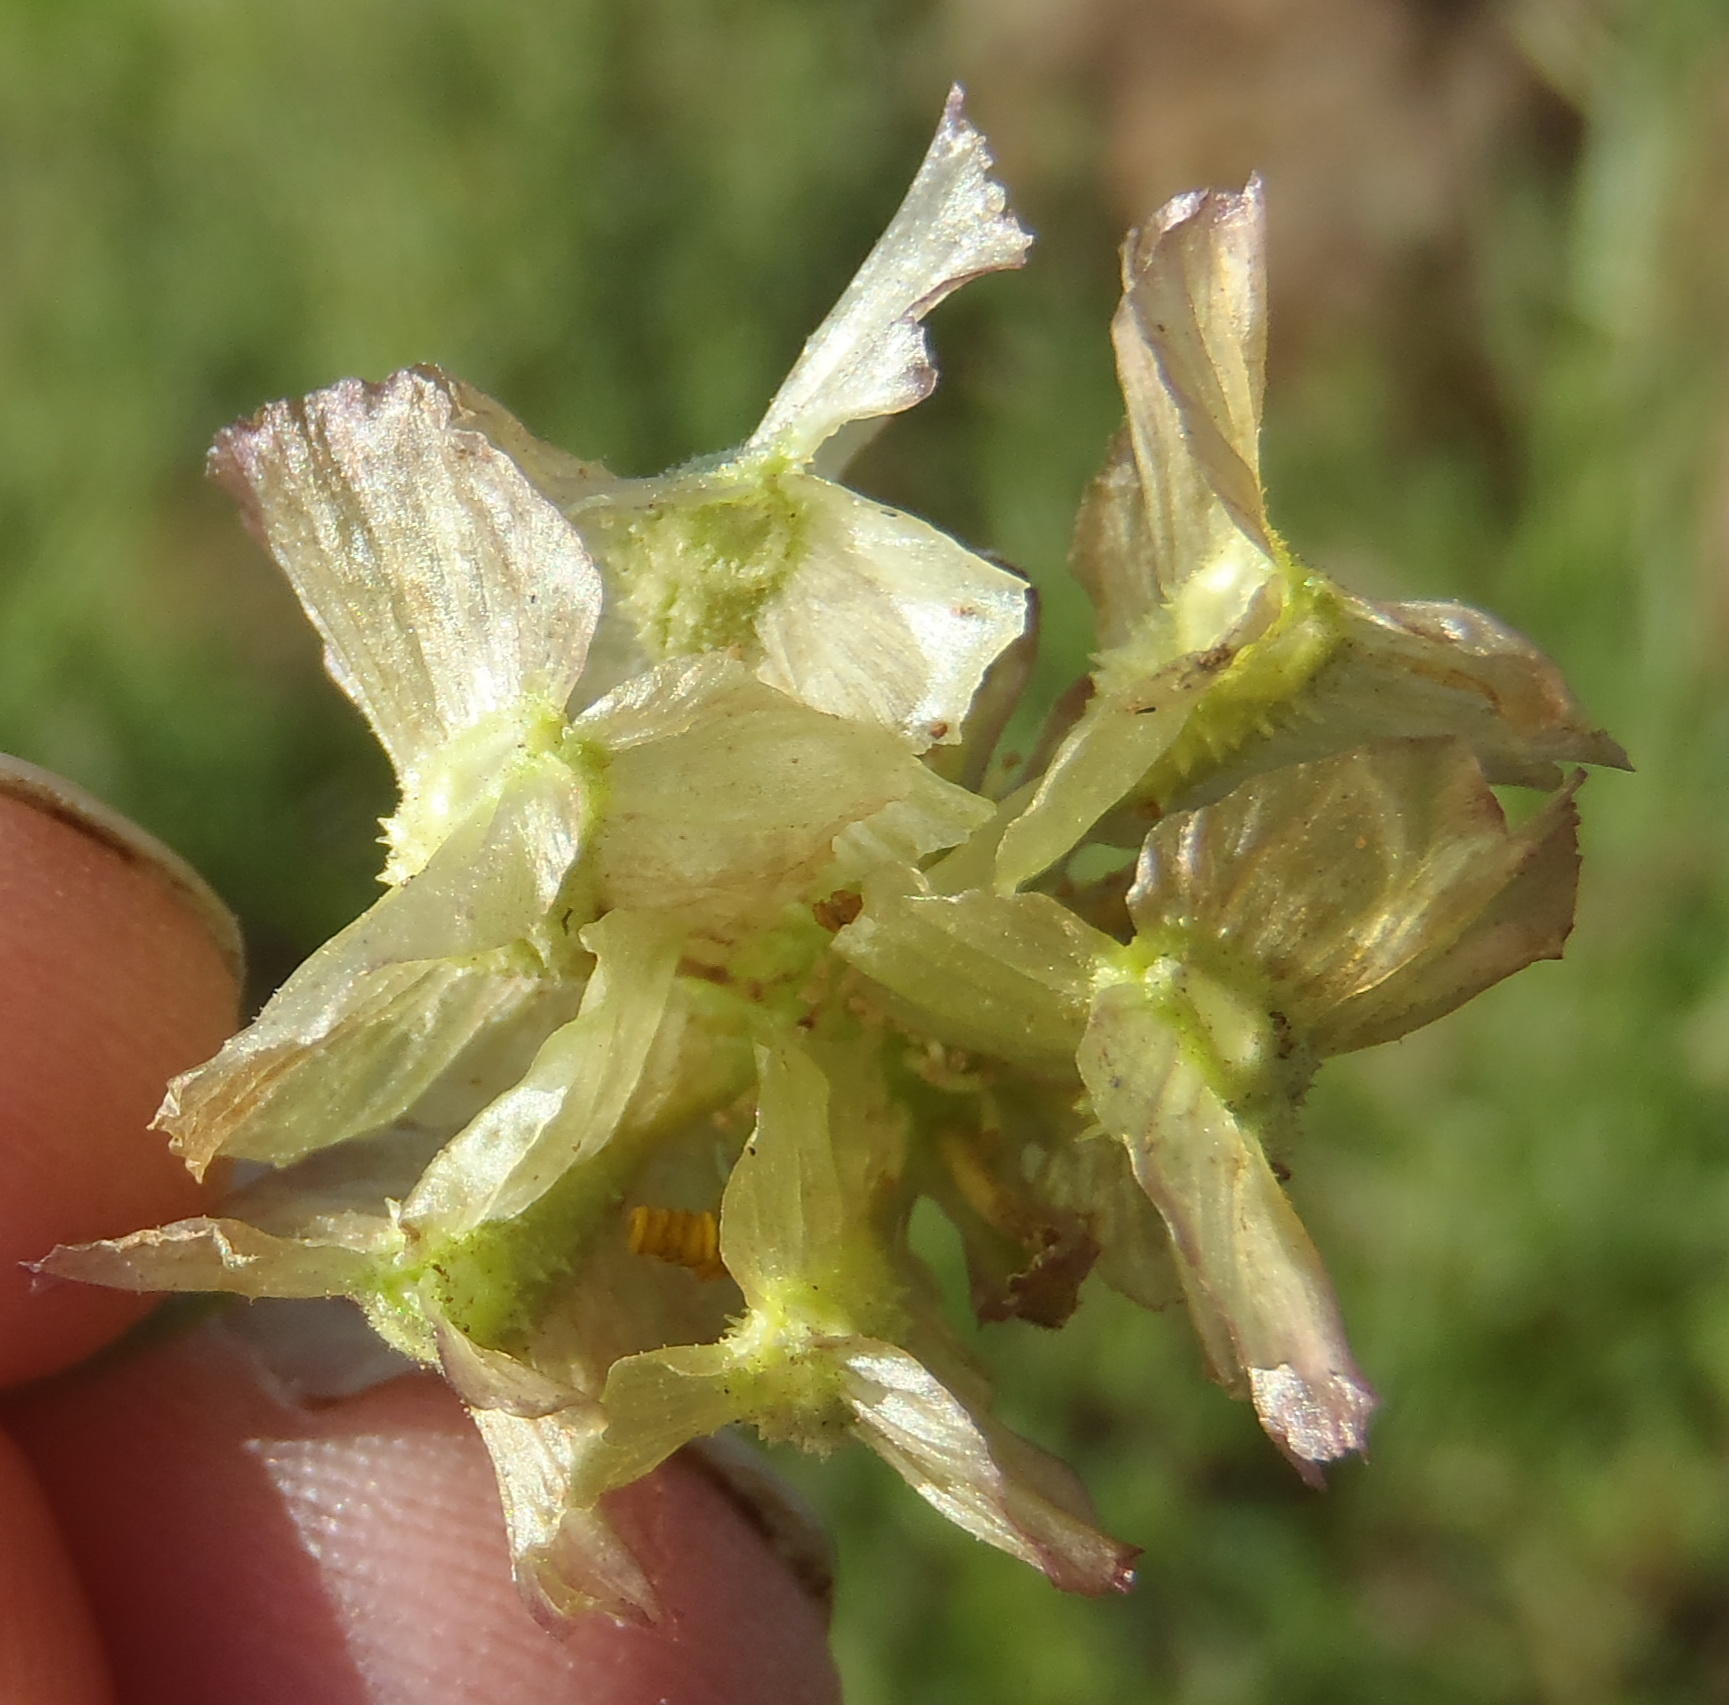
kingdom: Plantae
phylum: Tracheophyta
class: Magnoliopsida
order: Asterales
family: Asteraceae
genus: Osteospermum
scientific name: Osteospermum scariosum
